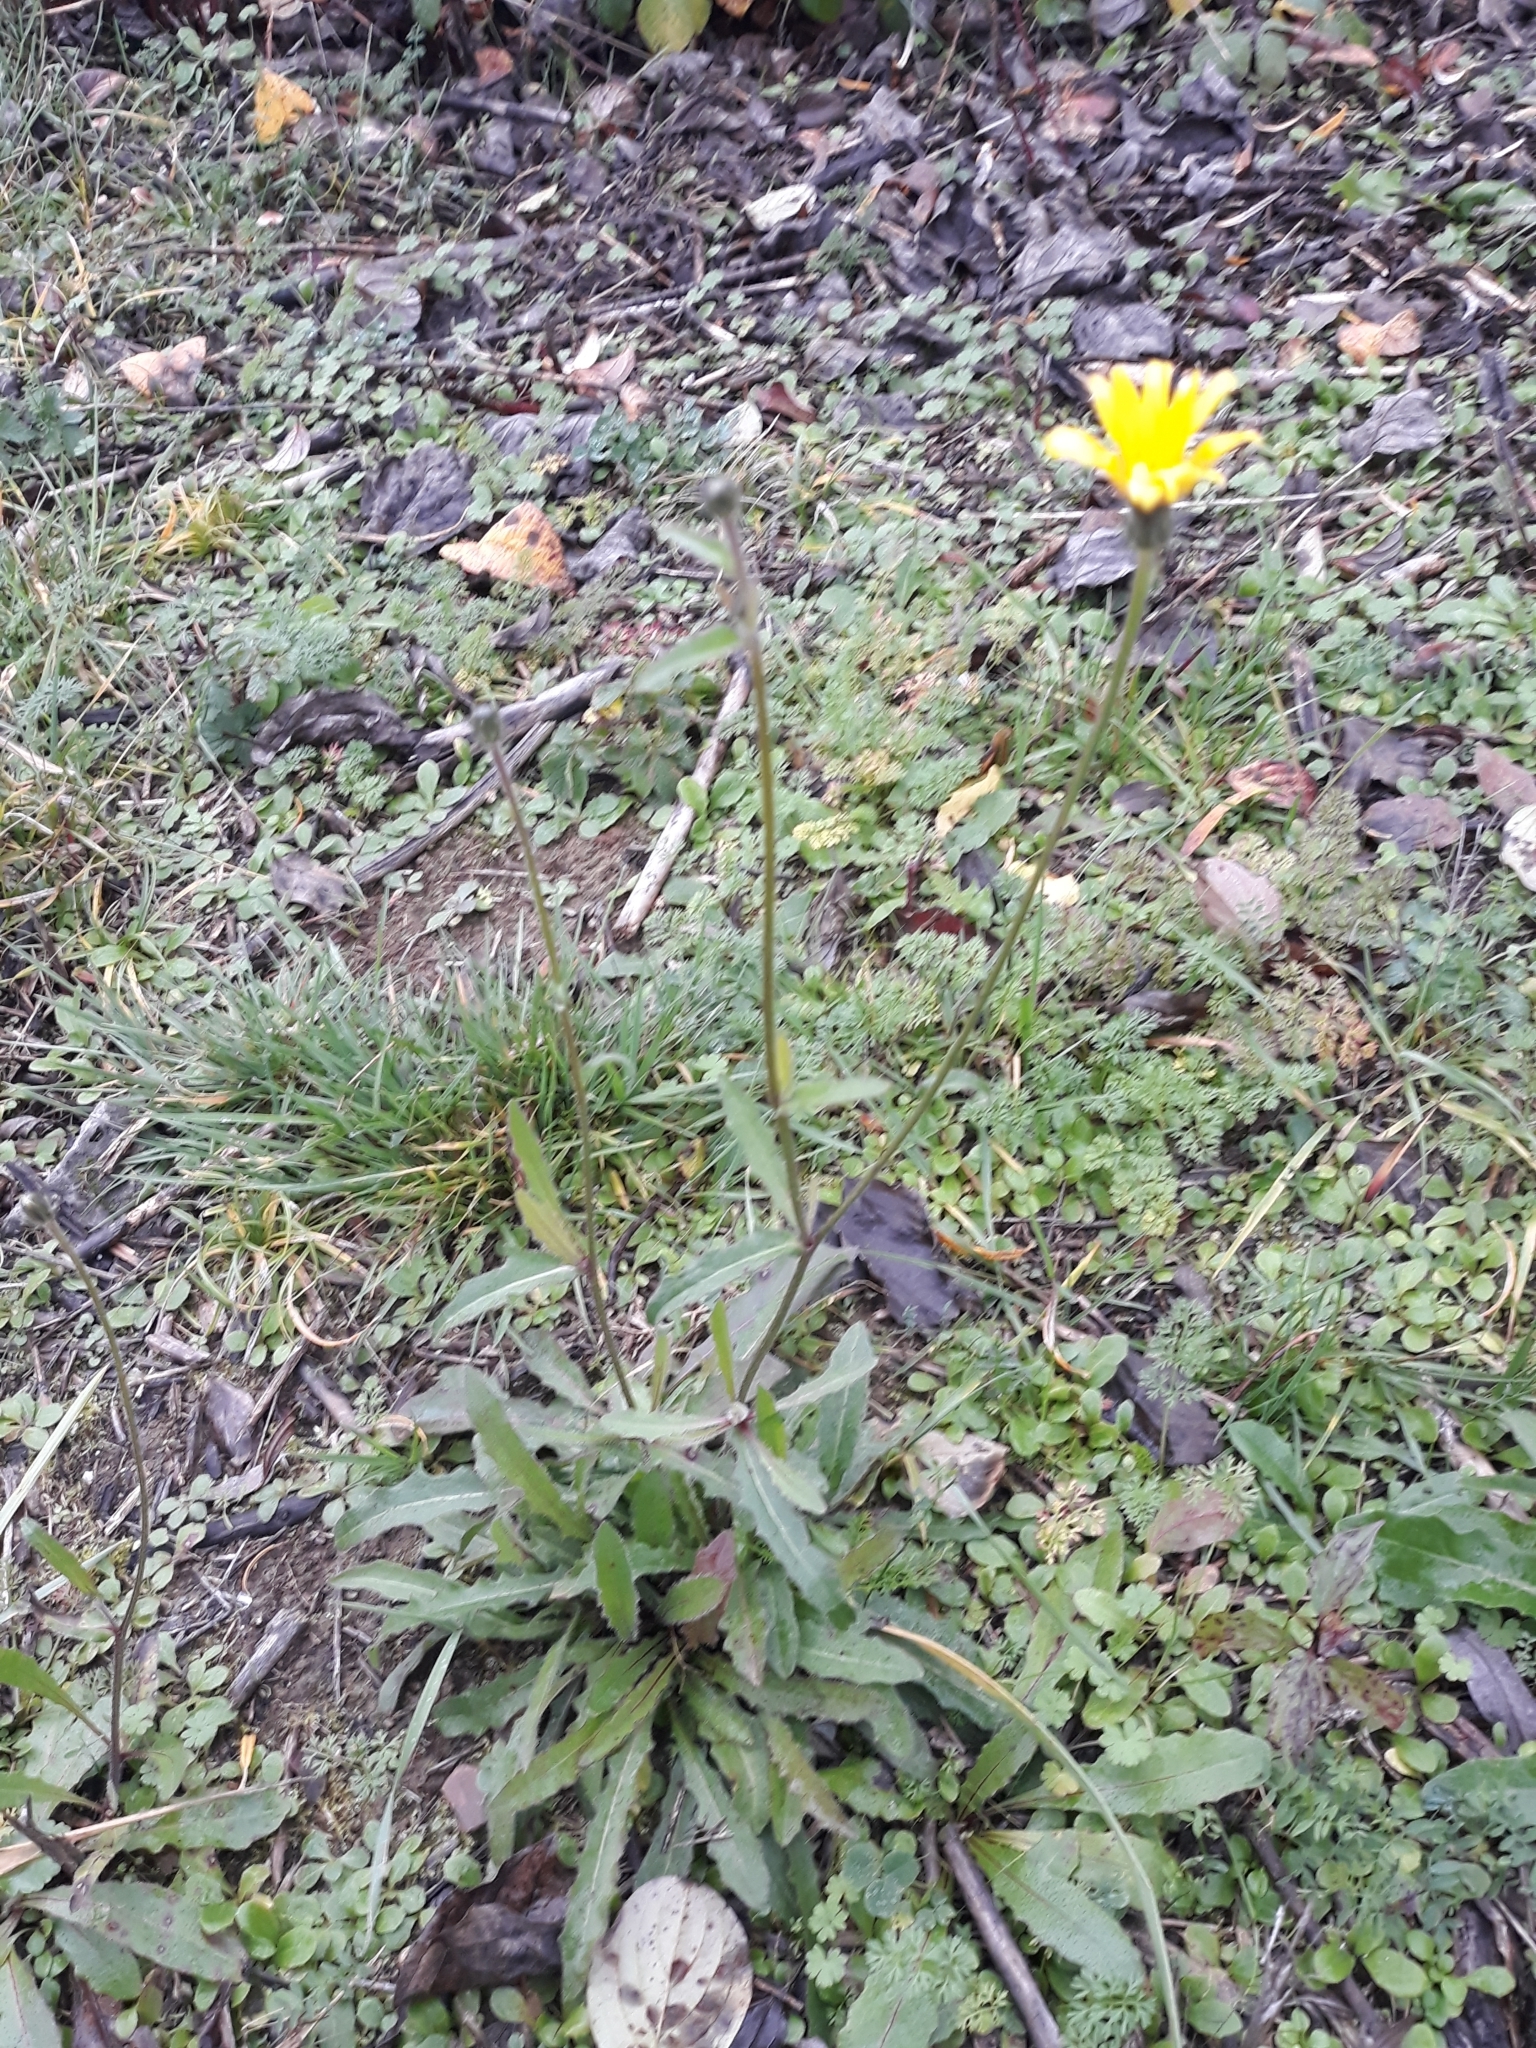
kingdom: Plantae
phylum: Tracheophyta
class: Magnoliopsida
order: Asterales
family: Asteraceae
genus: Picris
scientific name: Picris hieracioides
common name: Hawkweed oxtongue
